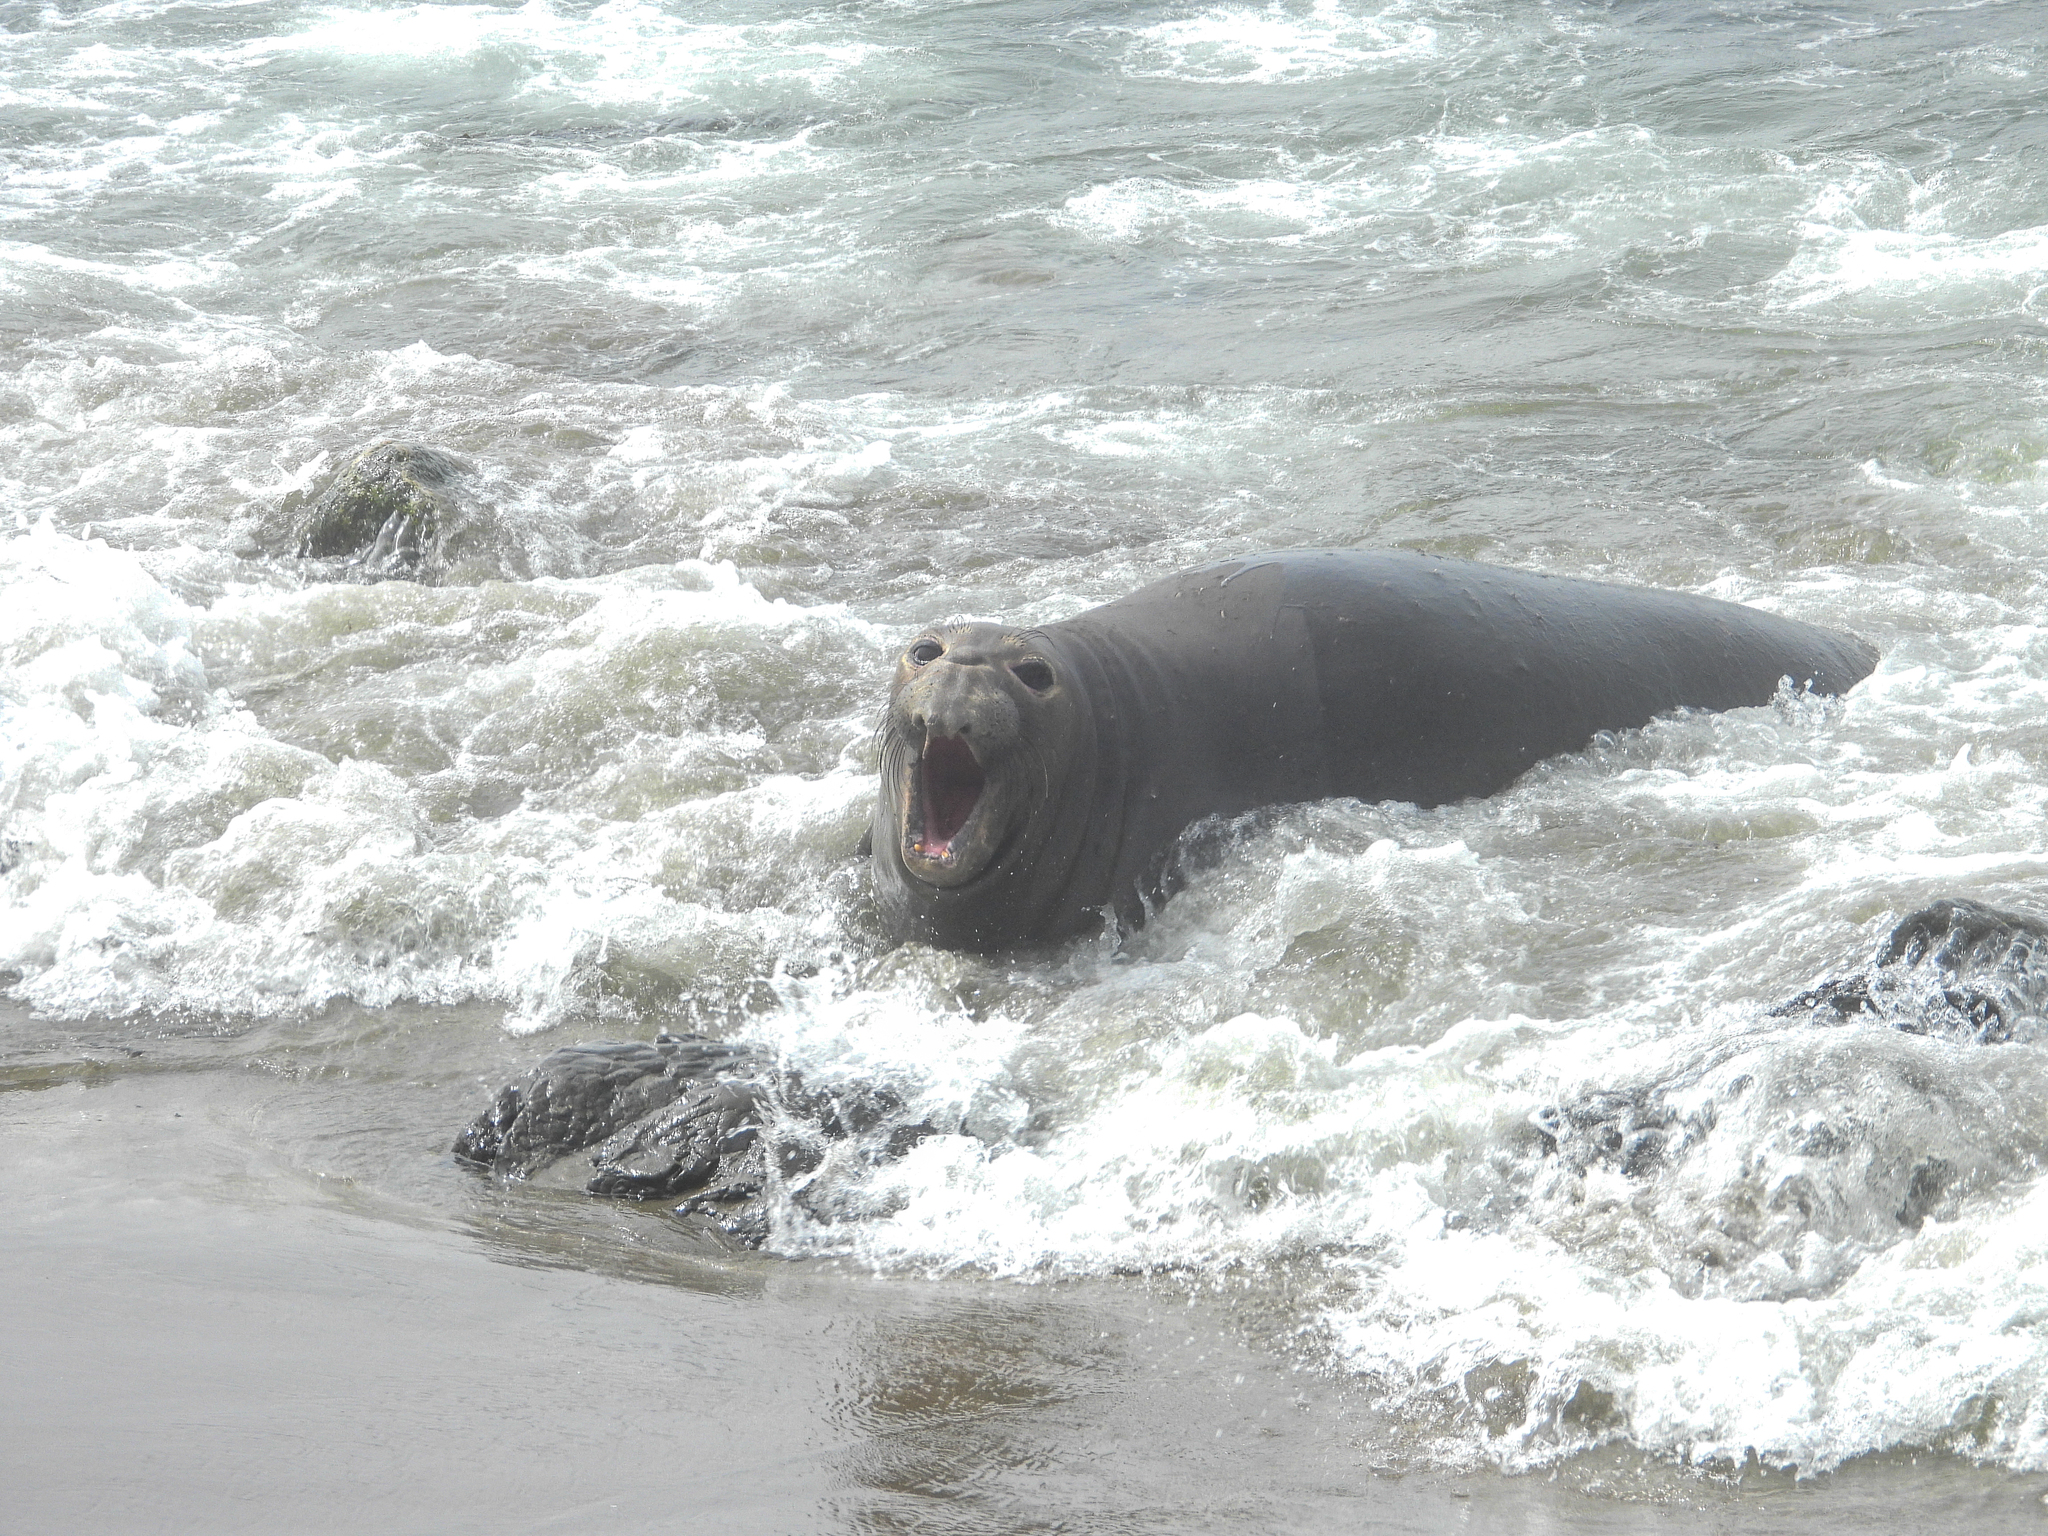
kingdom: Animalia
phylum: Chordata
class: Mammalia
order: Carnivora
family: Phocidae
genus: Mirounga
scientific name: Mirounga angustirostris
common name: Northern elephant seal
